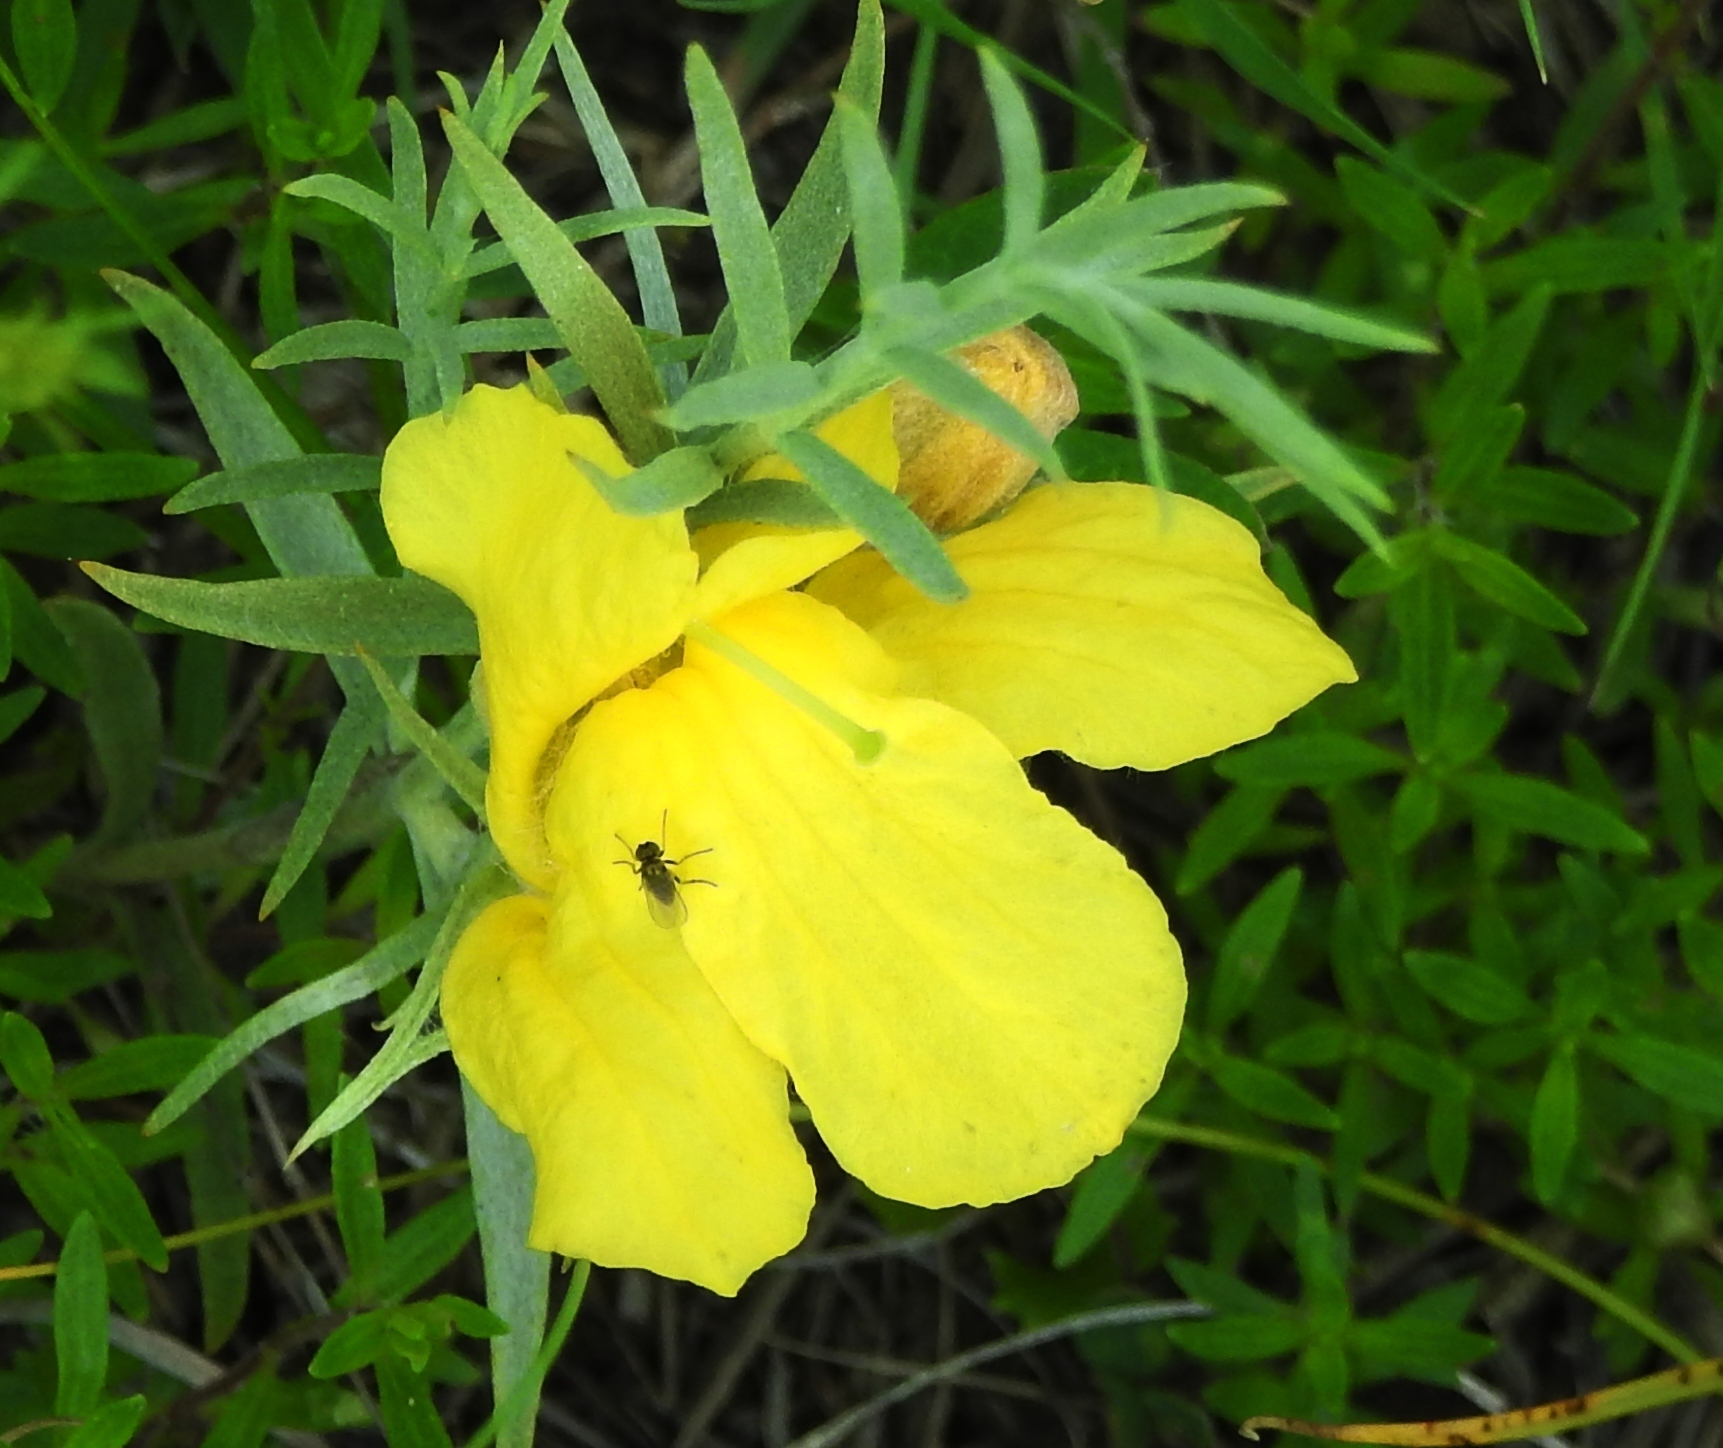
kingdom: Plantae
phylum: Tracheophyta
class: Magnoliopsida
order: Lamiales
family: Orobanchaceae
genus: Cymbaria
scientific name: Cymbaria daurica
